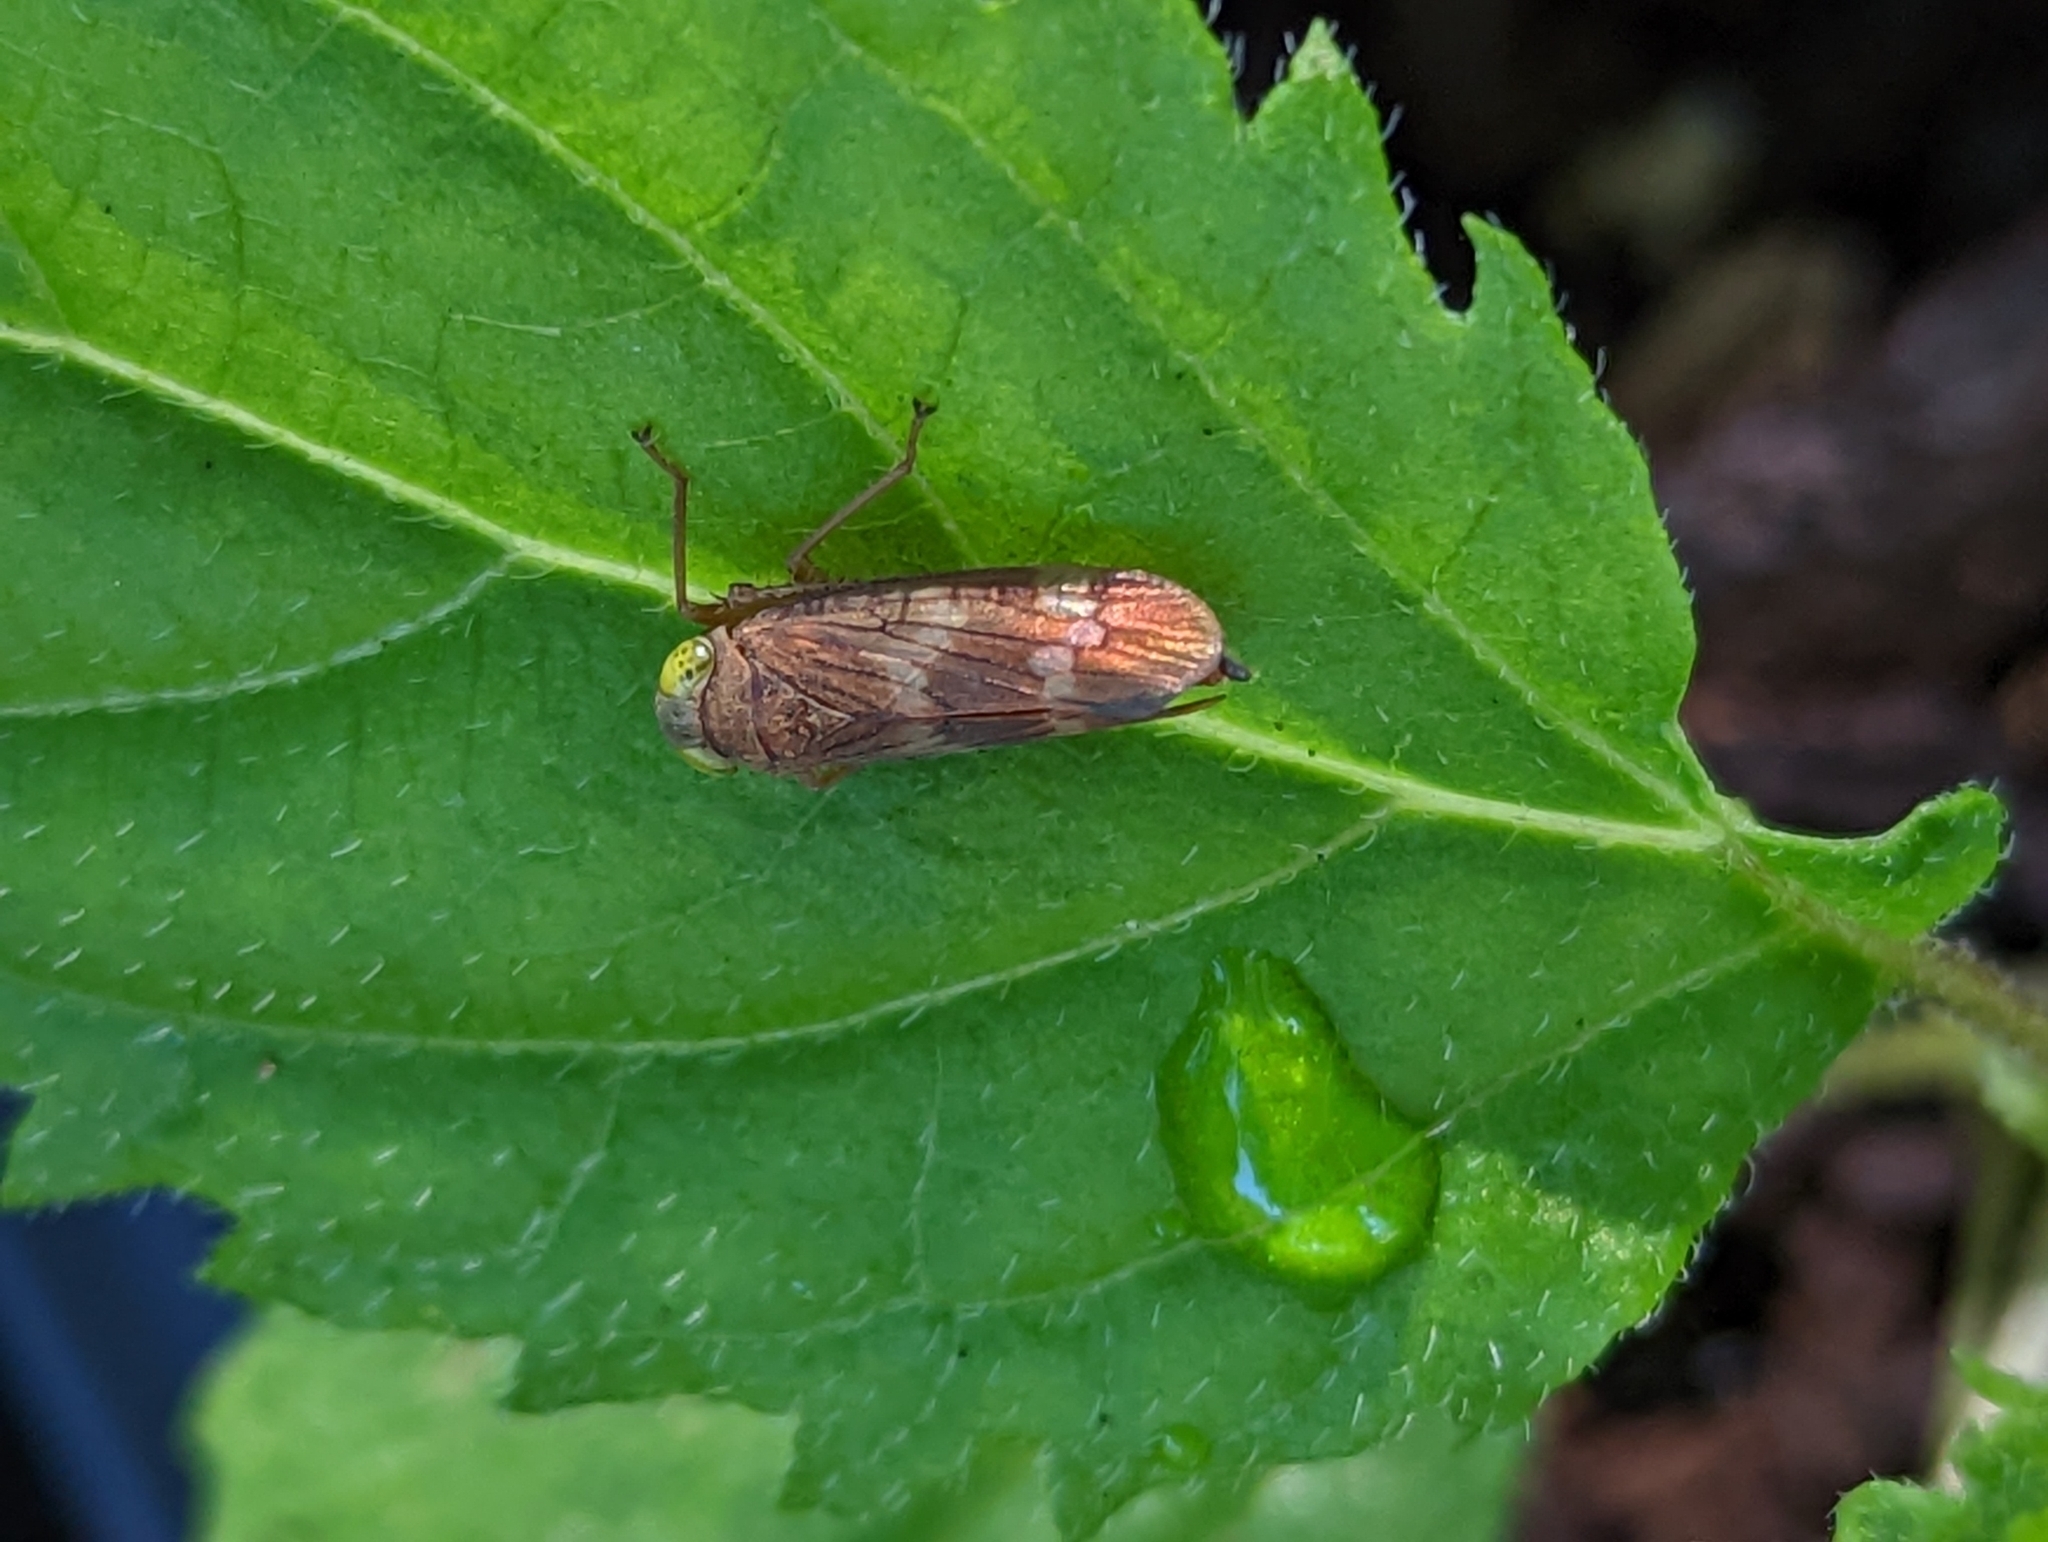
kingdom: Animalia
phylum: Arthropoda
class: Insecta
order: Hemiptera
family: Cicadellidae
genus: Jikradia
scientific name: Jikradia olitoria
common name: Coppery leafhopper
